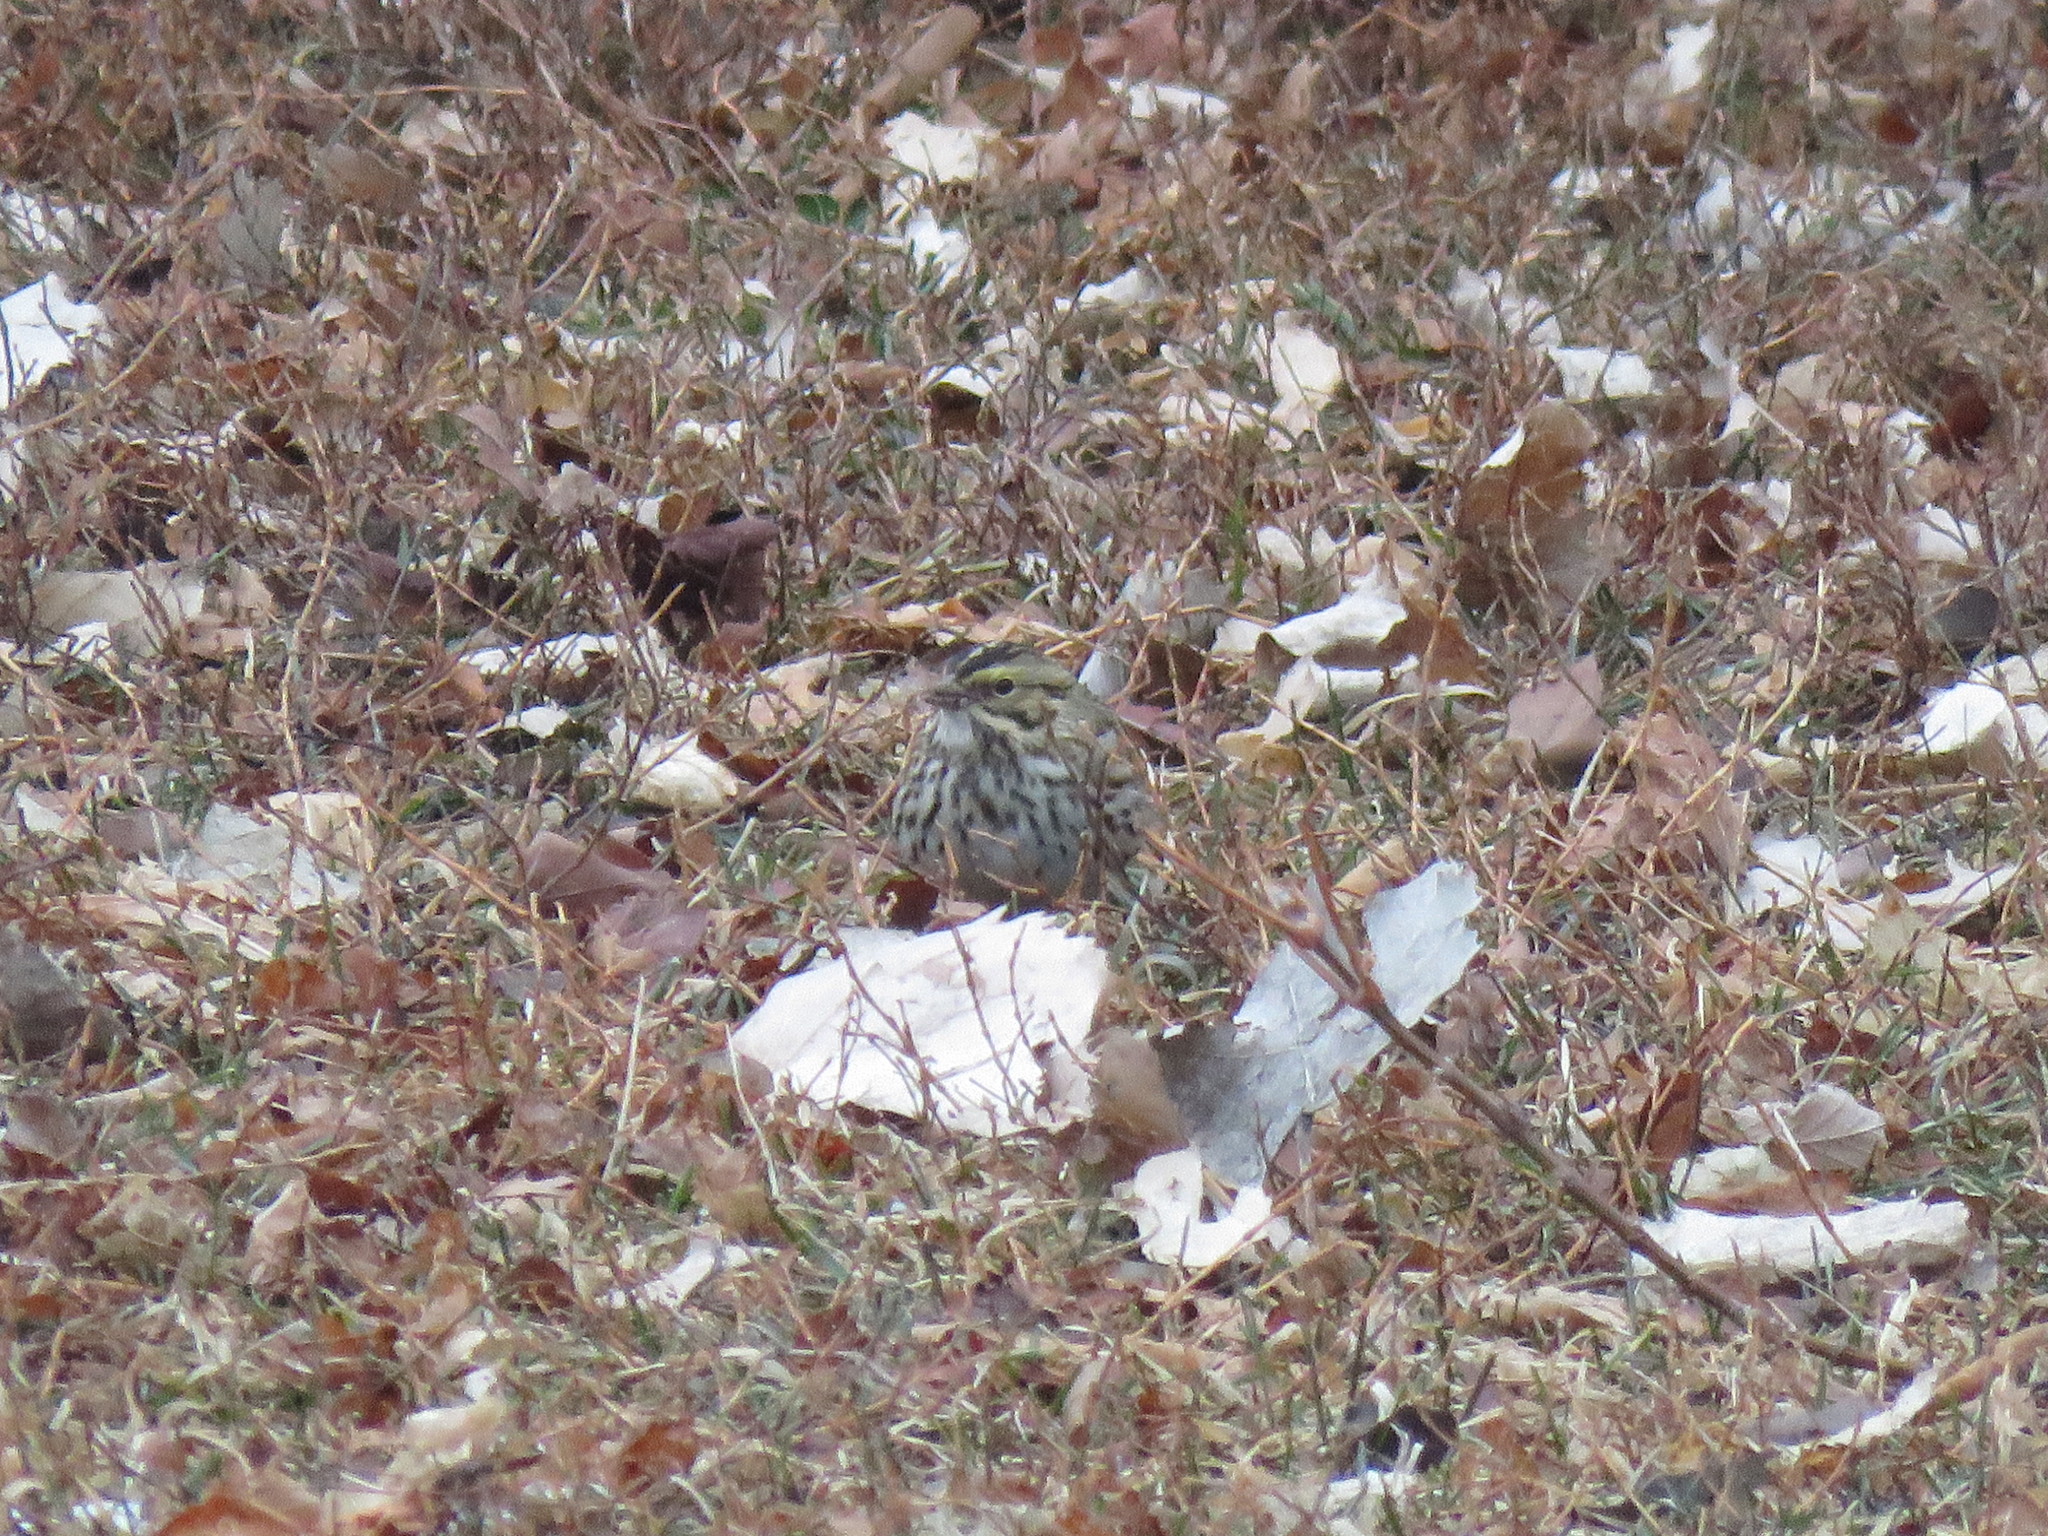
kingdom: Animalia
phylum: Chordata
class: Aves
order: Passeriformes
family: Passerellidae
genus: Passerculus
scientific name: Passerculus sandwichensis
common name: Savannah sparrow
